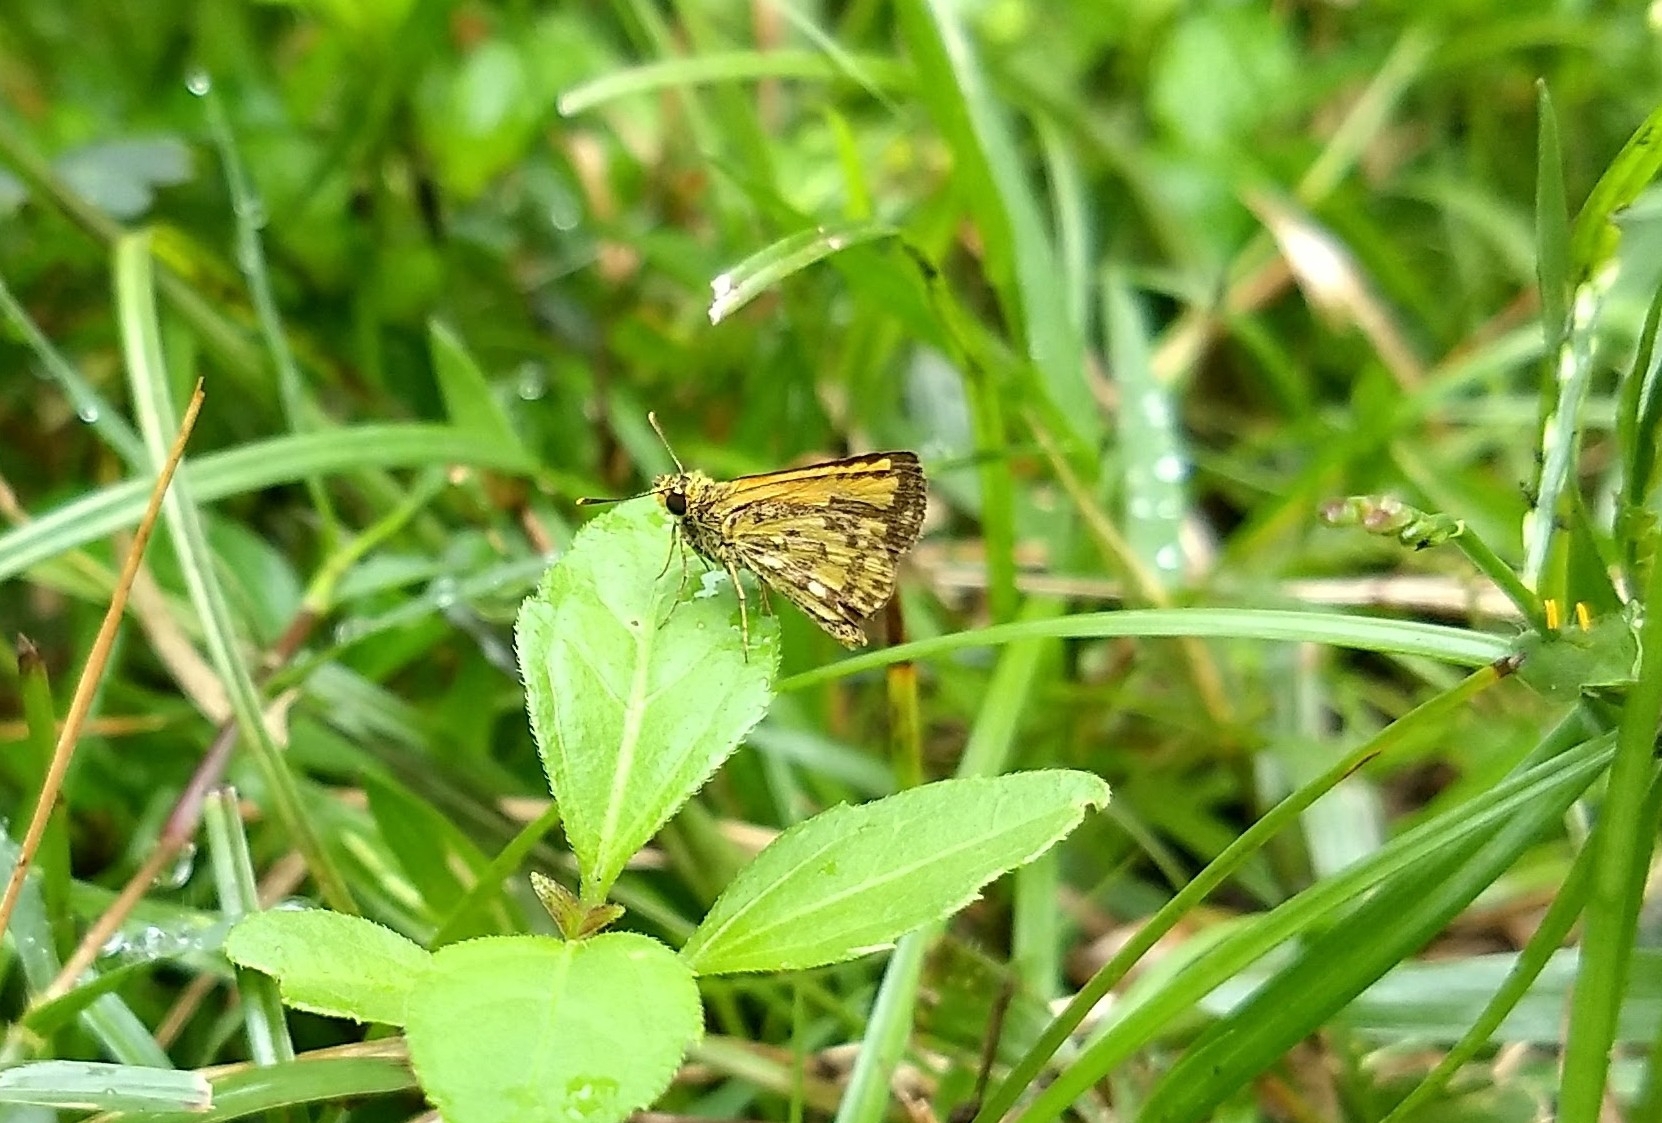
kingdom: Animalia
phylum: Arthropoda
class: Insecta
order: Lepidoptera
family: Hesperiidae
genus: Ampittia
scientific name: Ampittia dioscorides
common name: Common bush hopper
